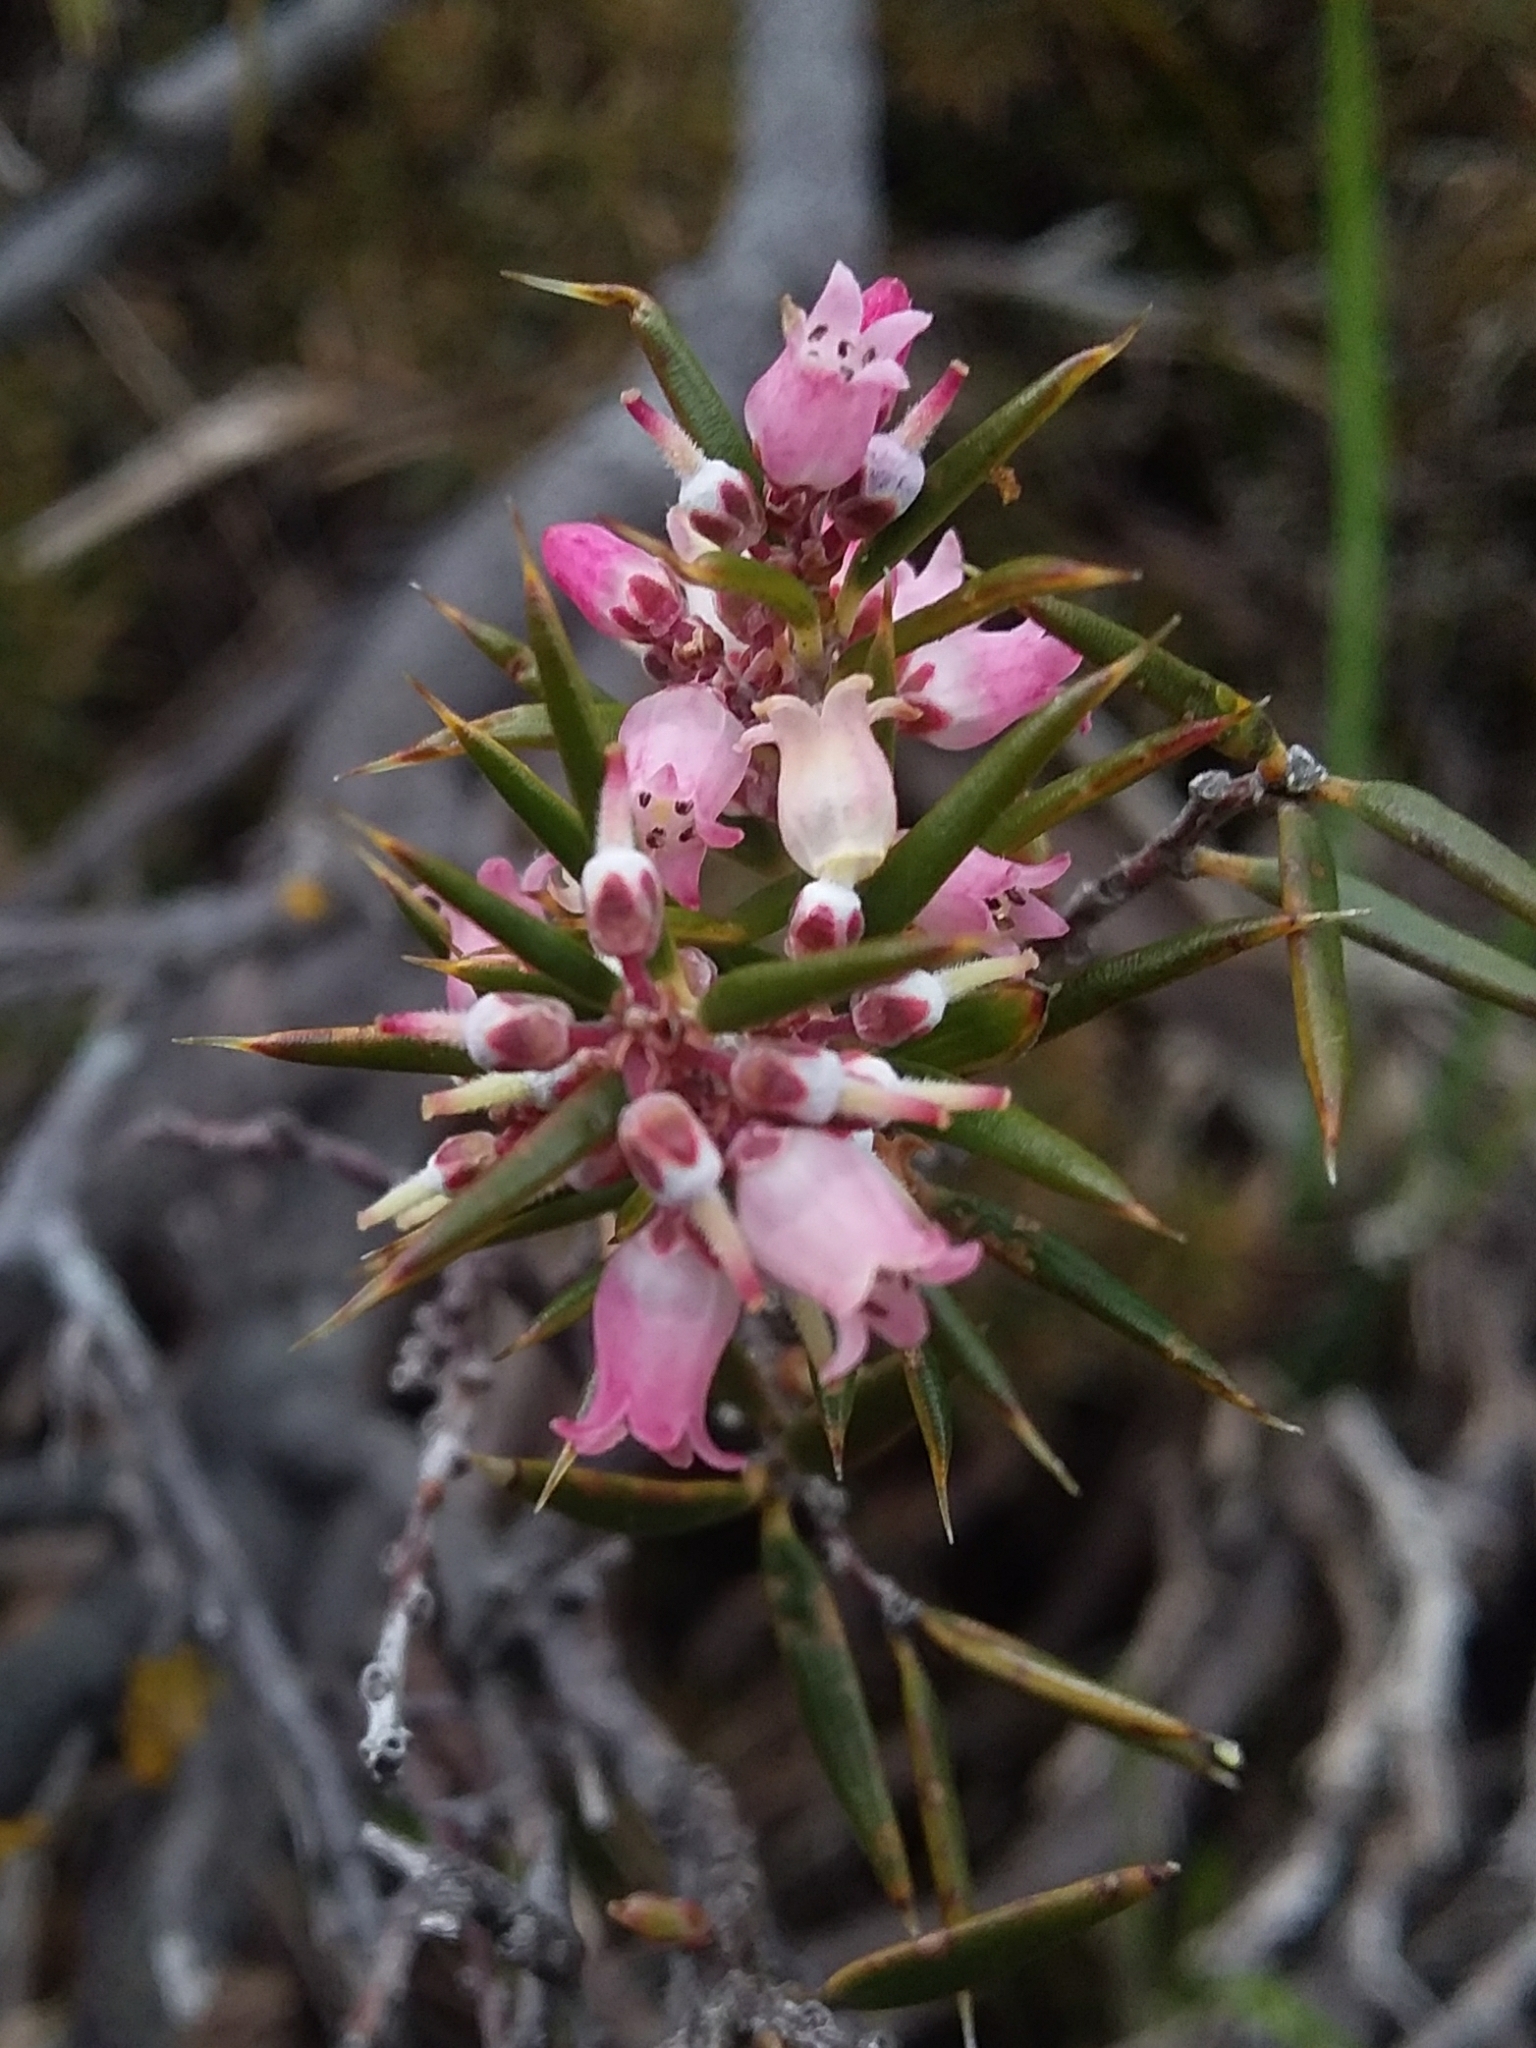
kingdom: Plantae
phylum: Tracheophyta
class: Magnoliopsida
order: Ericales
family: Ericaceae
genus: Lissanthe
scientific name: Lissanthe strigosa
